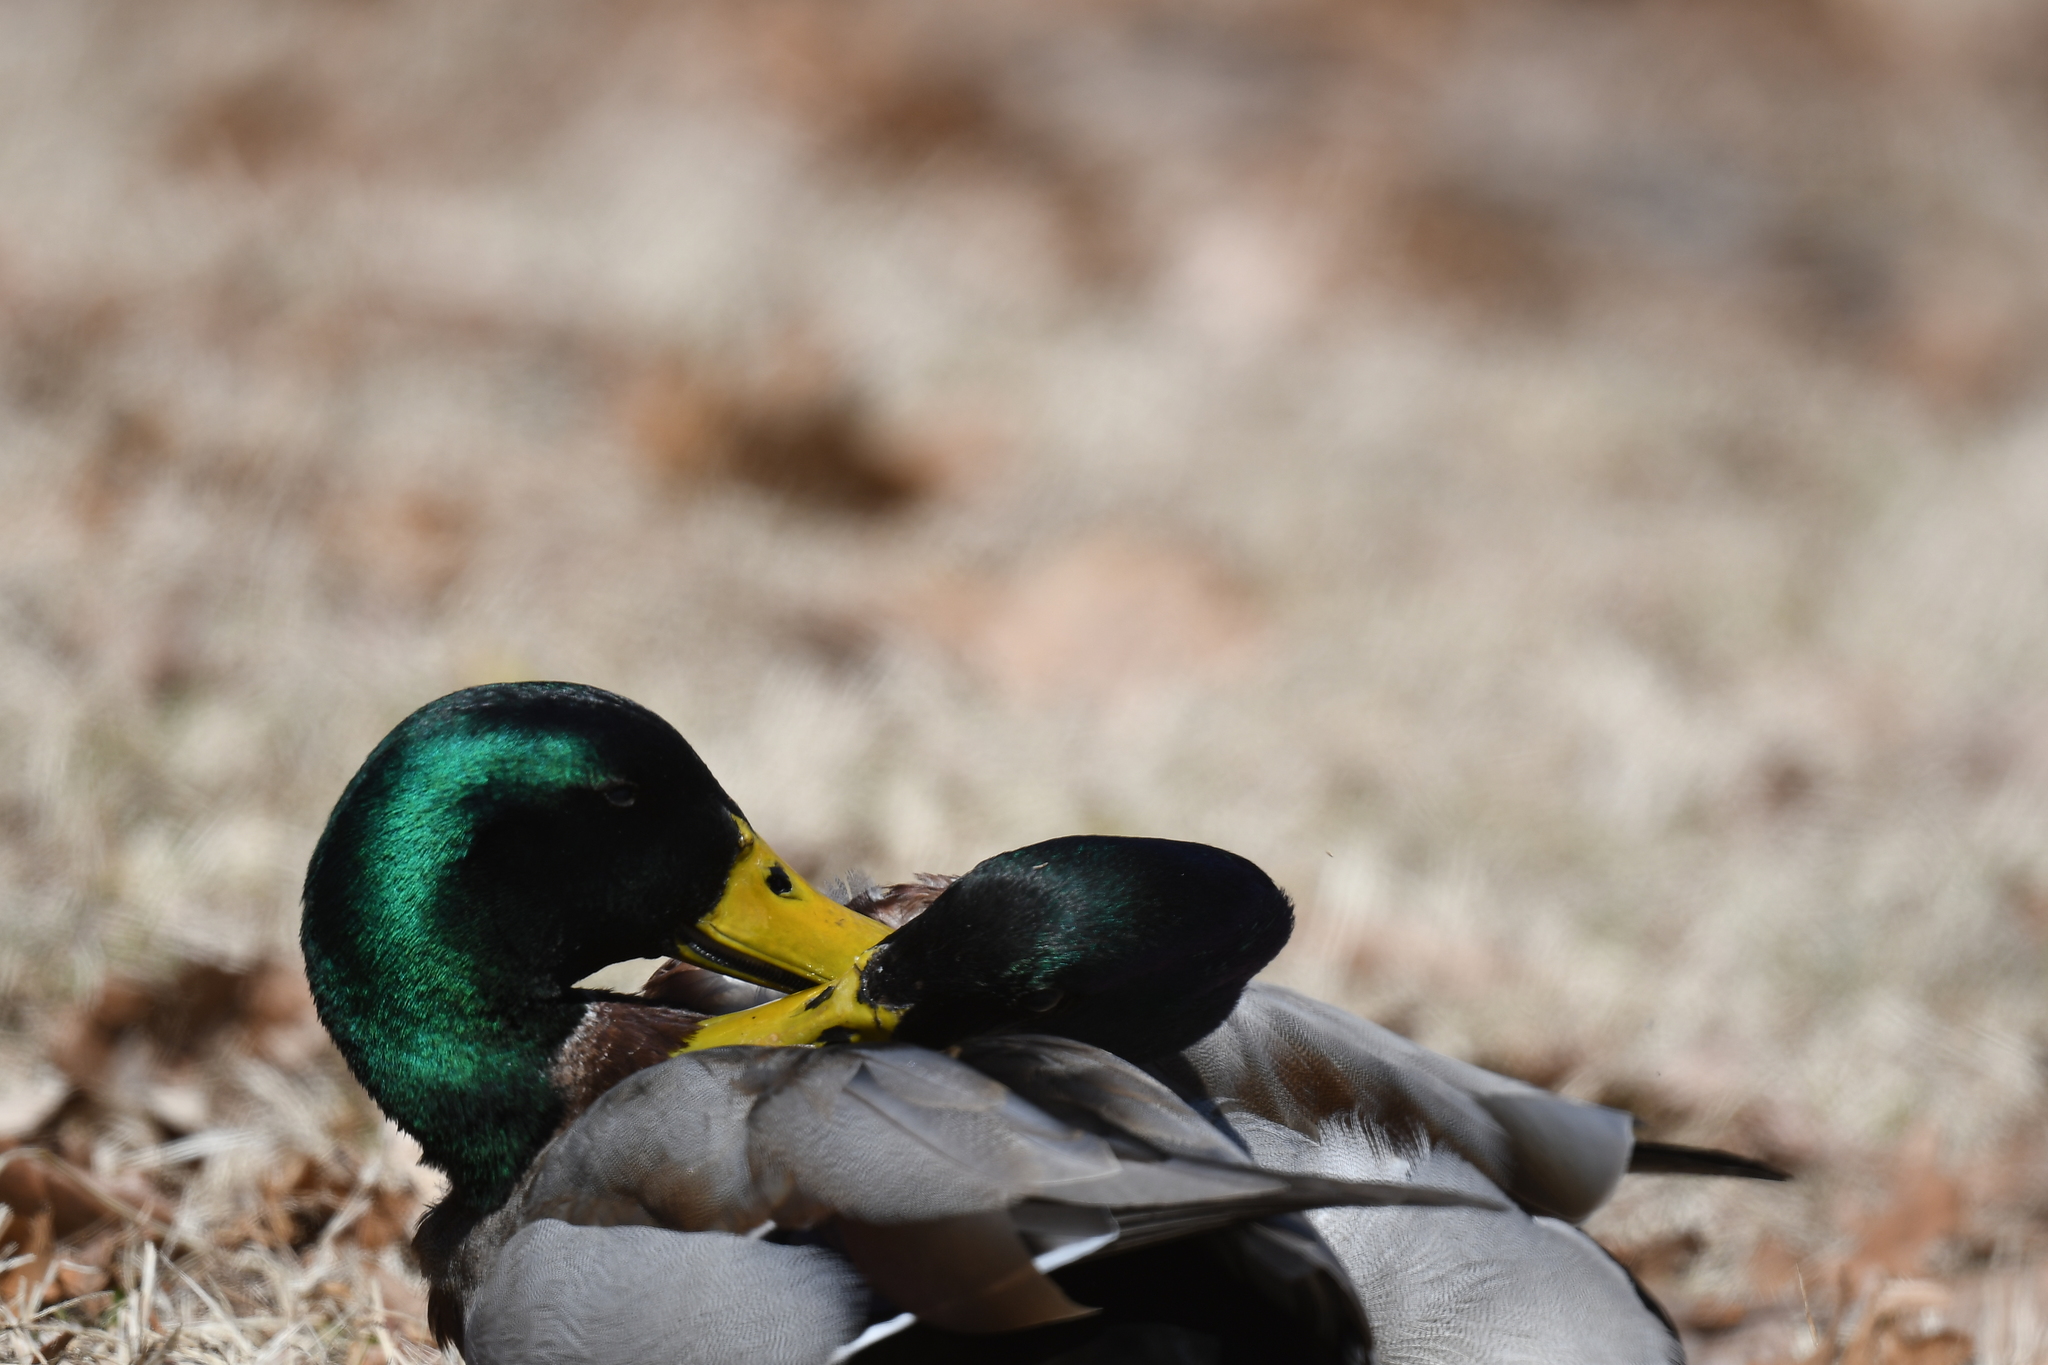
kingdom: Animalia
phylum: Chordata
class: Aves
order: Anseriformes
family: Anatidae
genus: Anas
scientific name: Anas platyrhynchos
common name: Mallard
